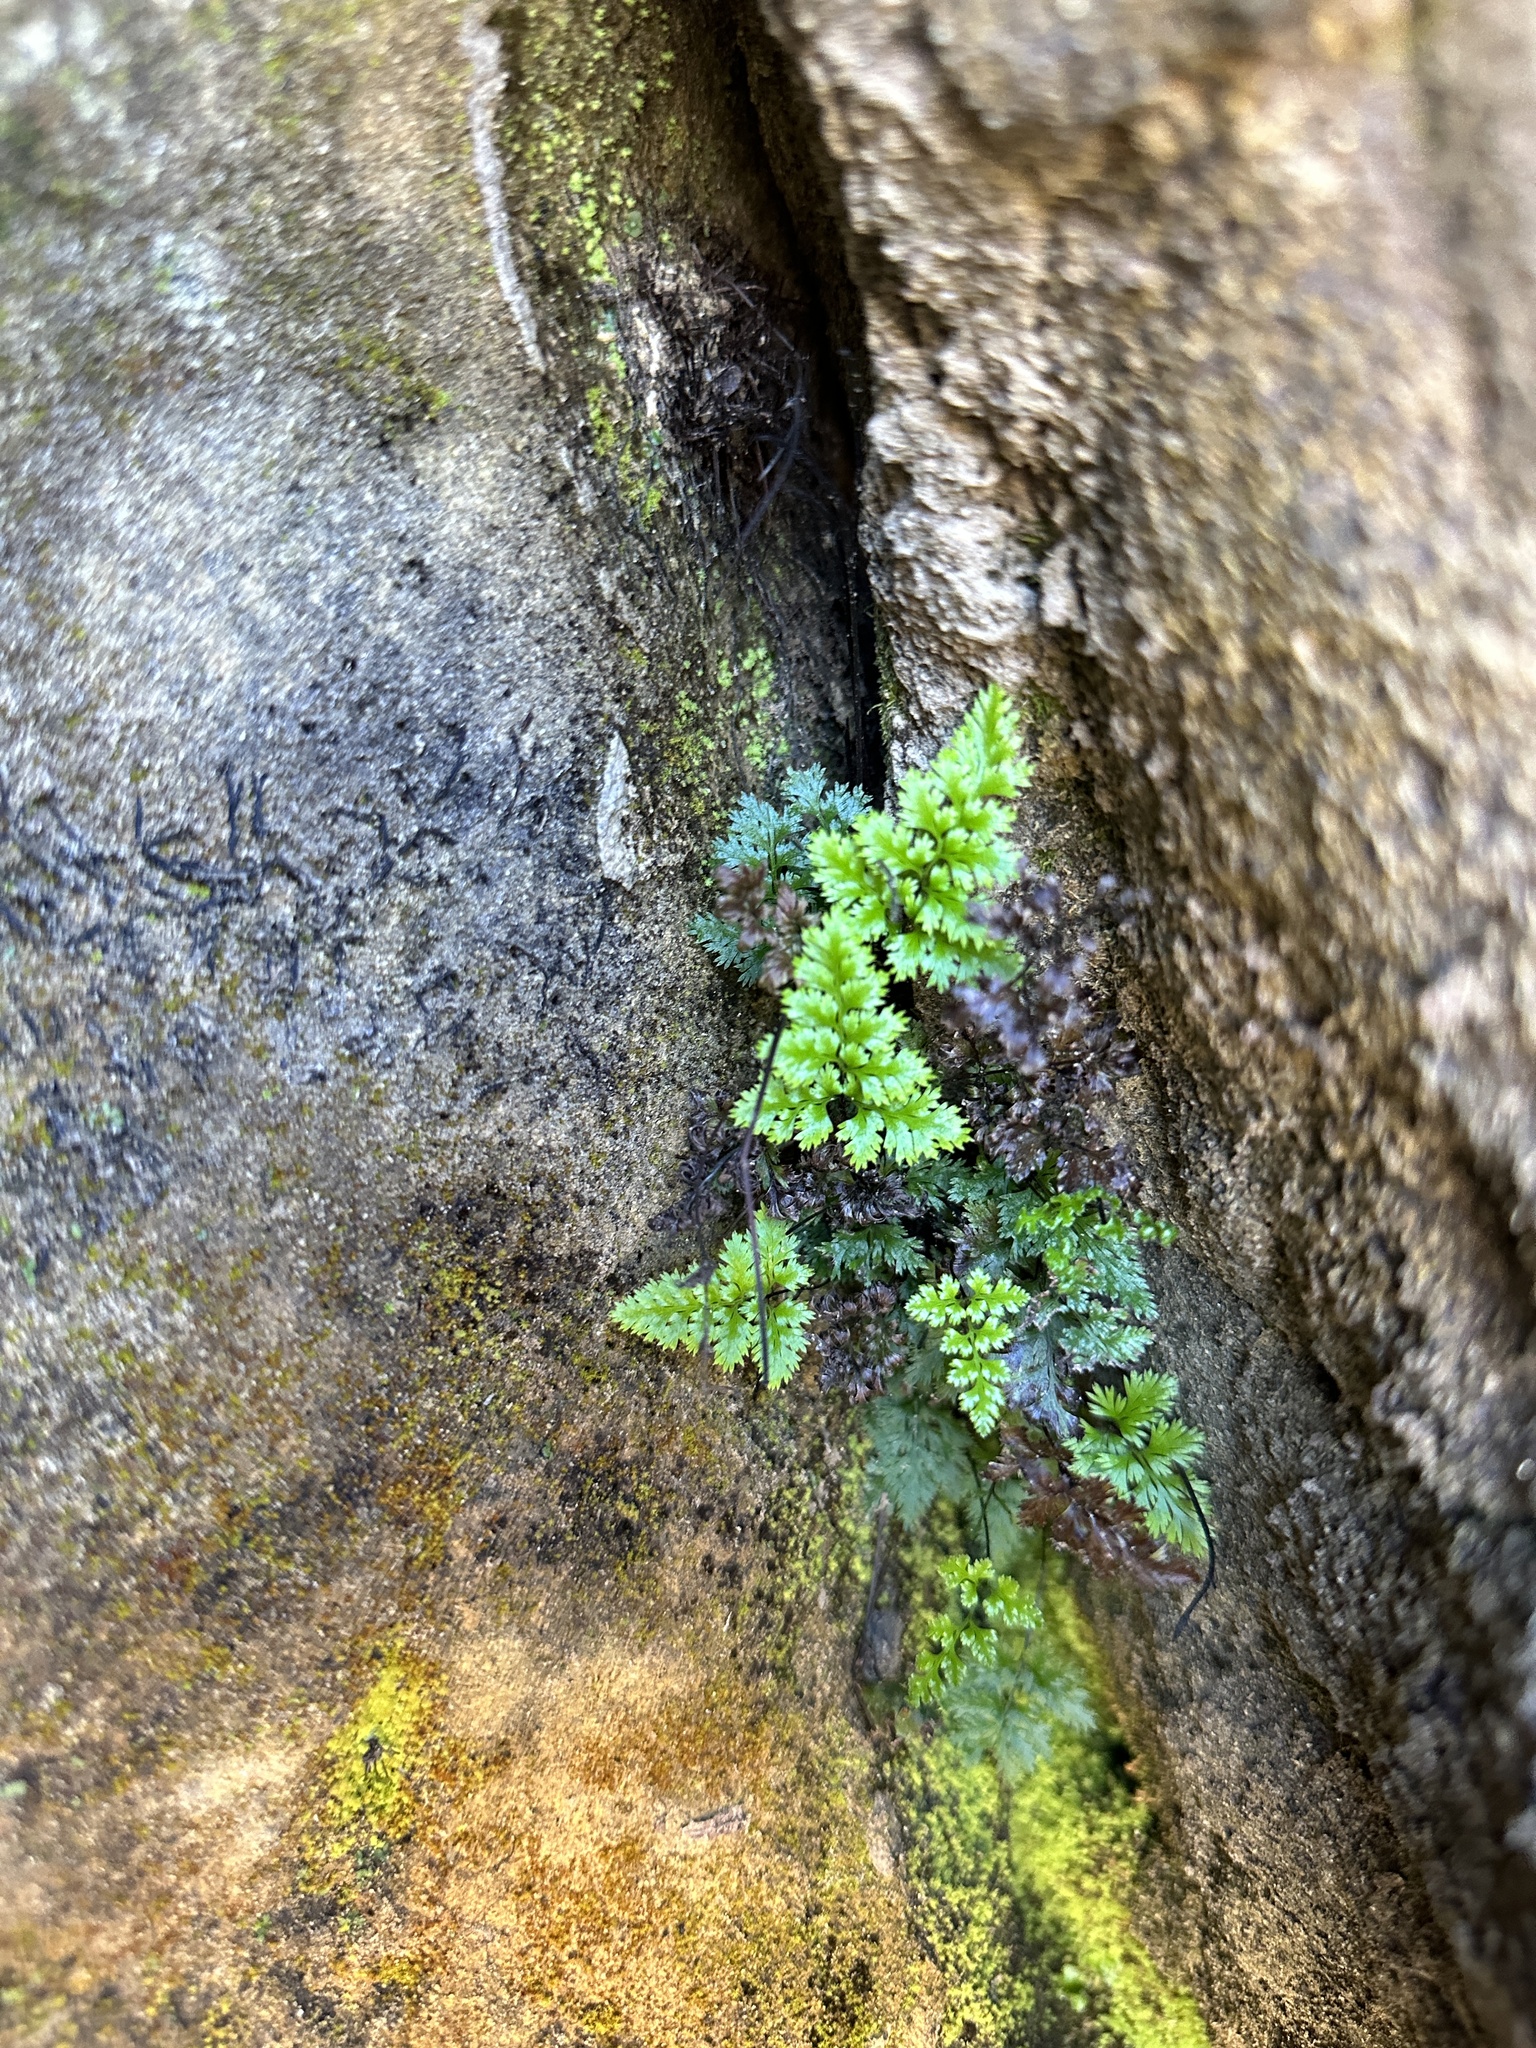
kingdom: Plantae
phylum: Tracheophyta
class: Polypodiopsida
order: Polypodiales
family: Pteridaceae
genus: Aspidotis
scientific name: Aspidotis californica
